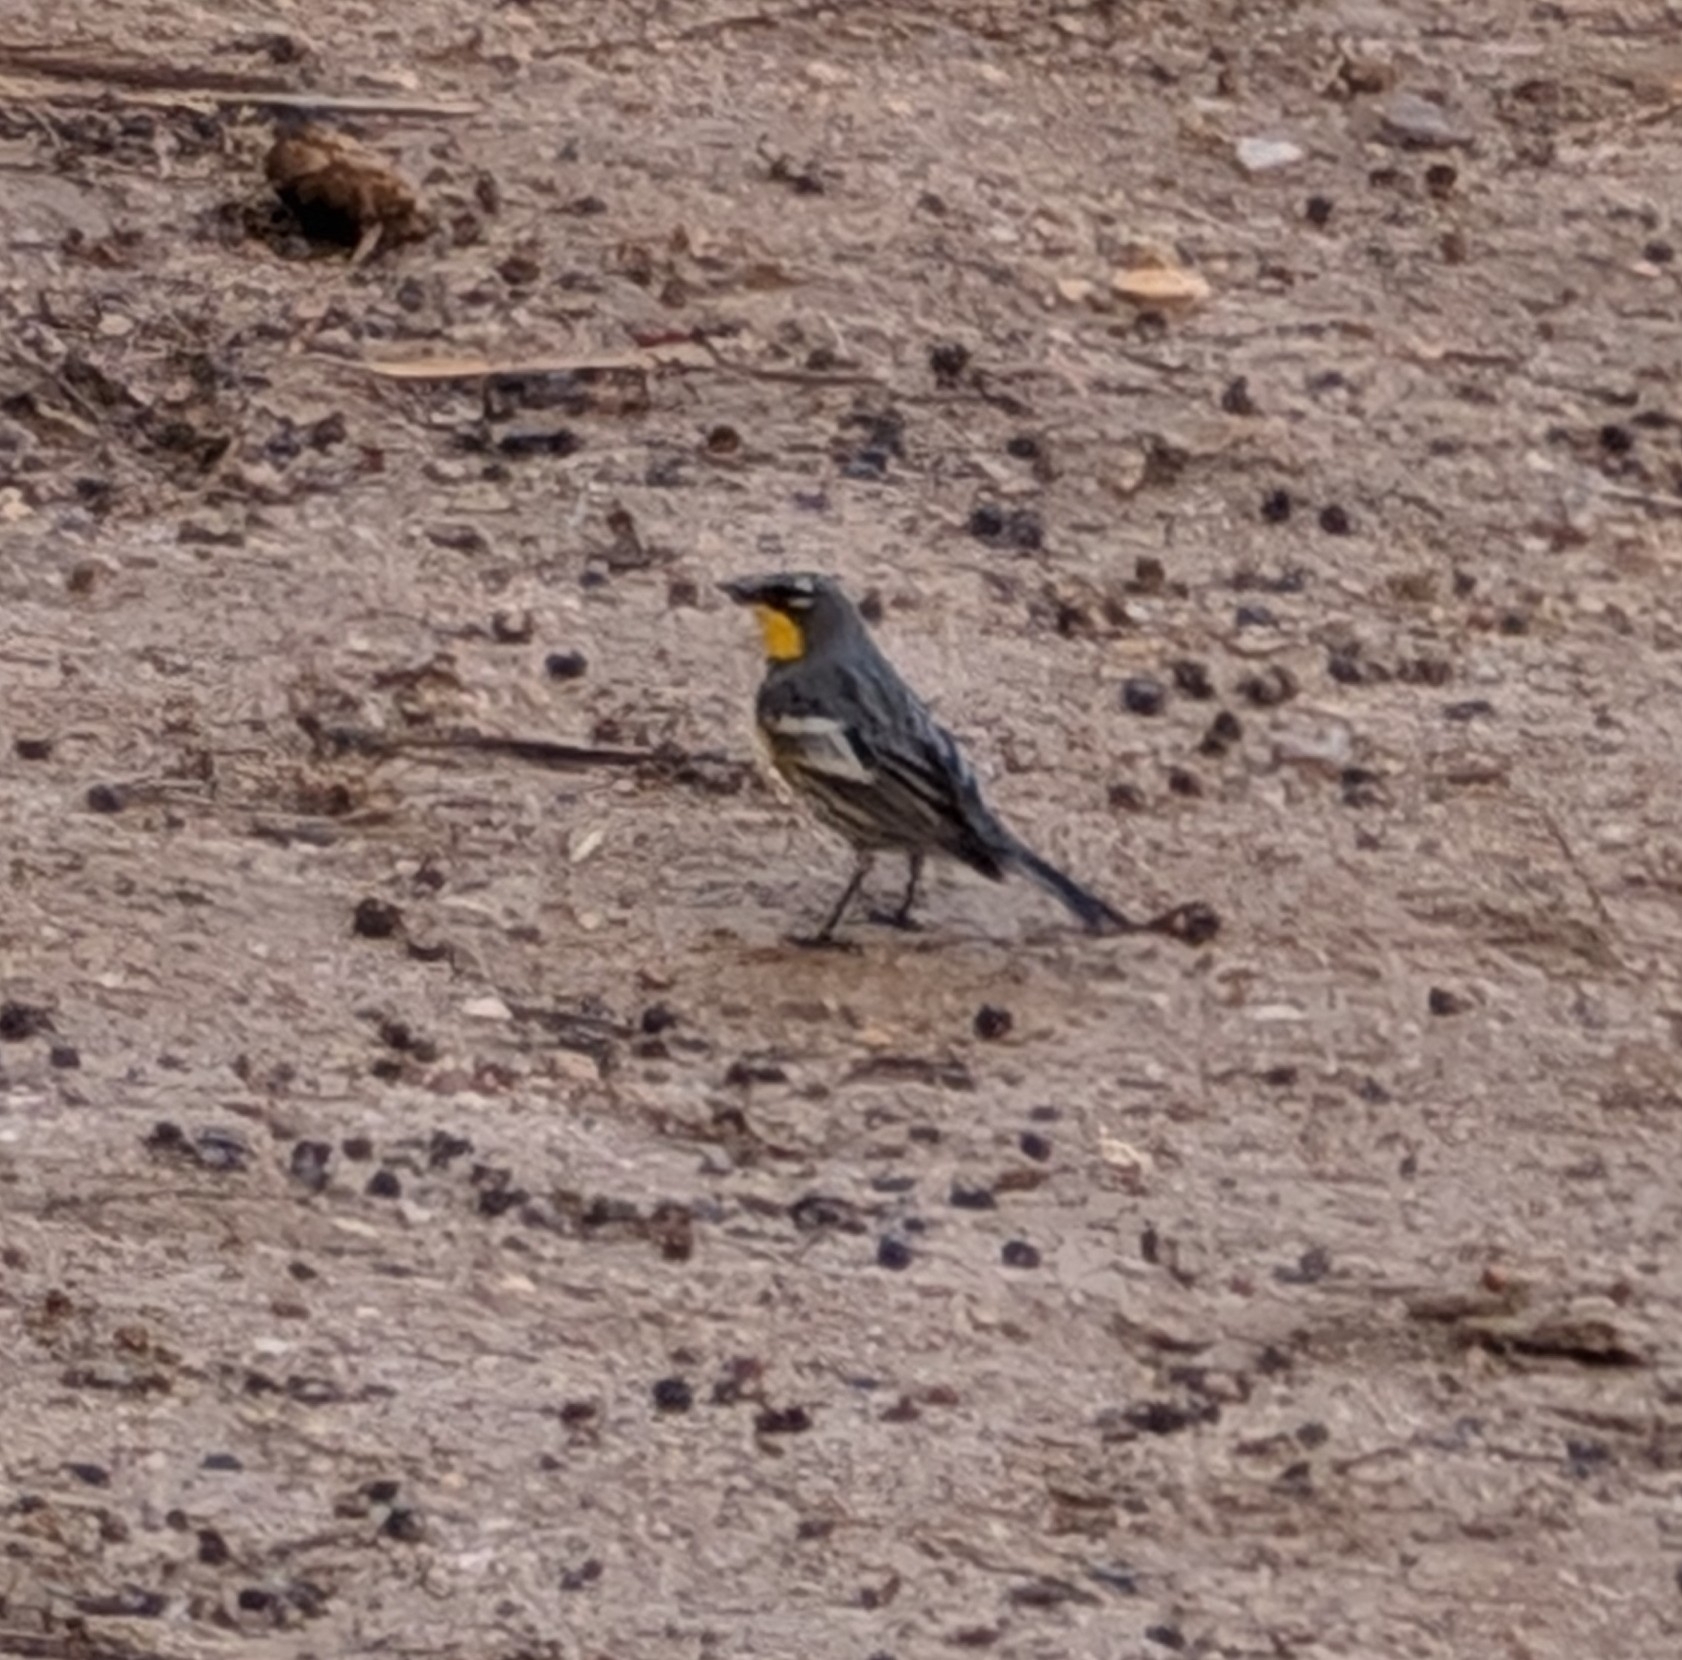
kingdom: Animalia
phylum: Chordata
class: Aves
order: Passeriformes
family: Parulidae
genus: Setophaga
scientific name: Setophaga coronata
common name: Myrtle warbler
